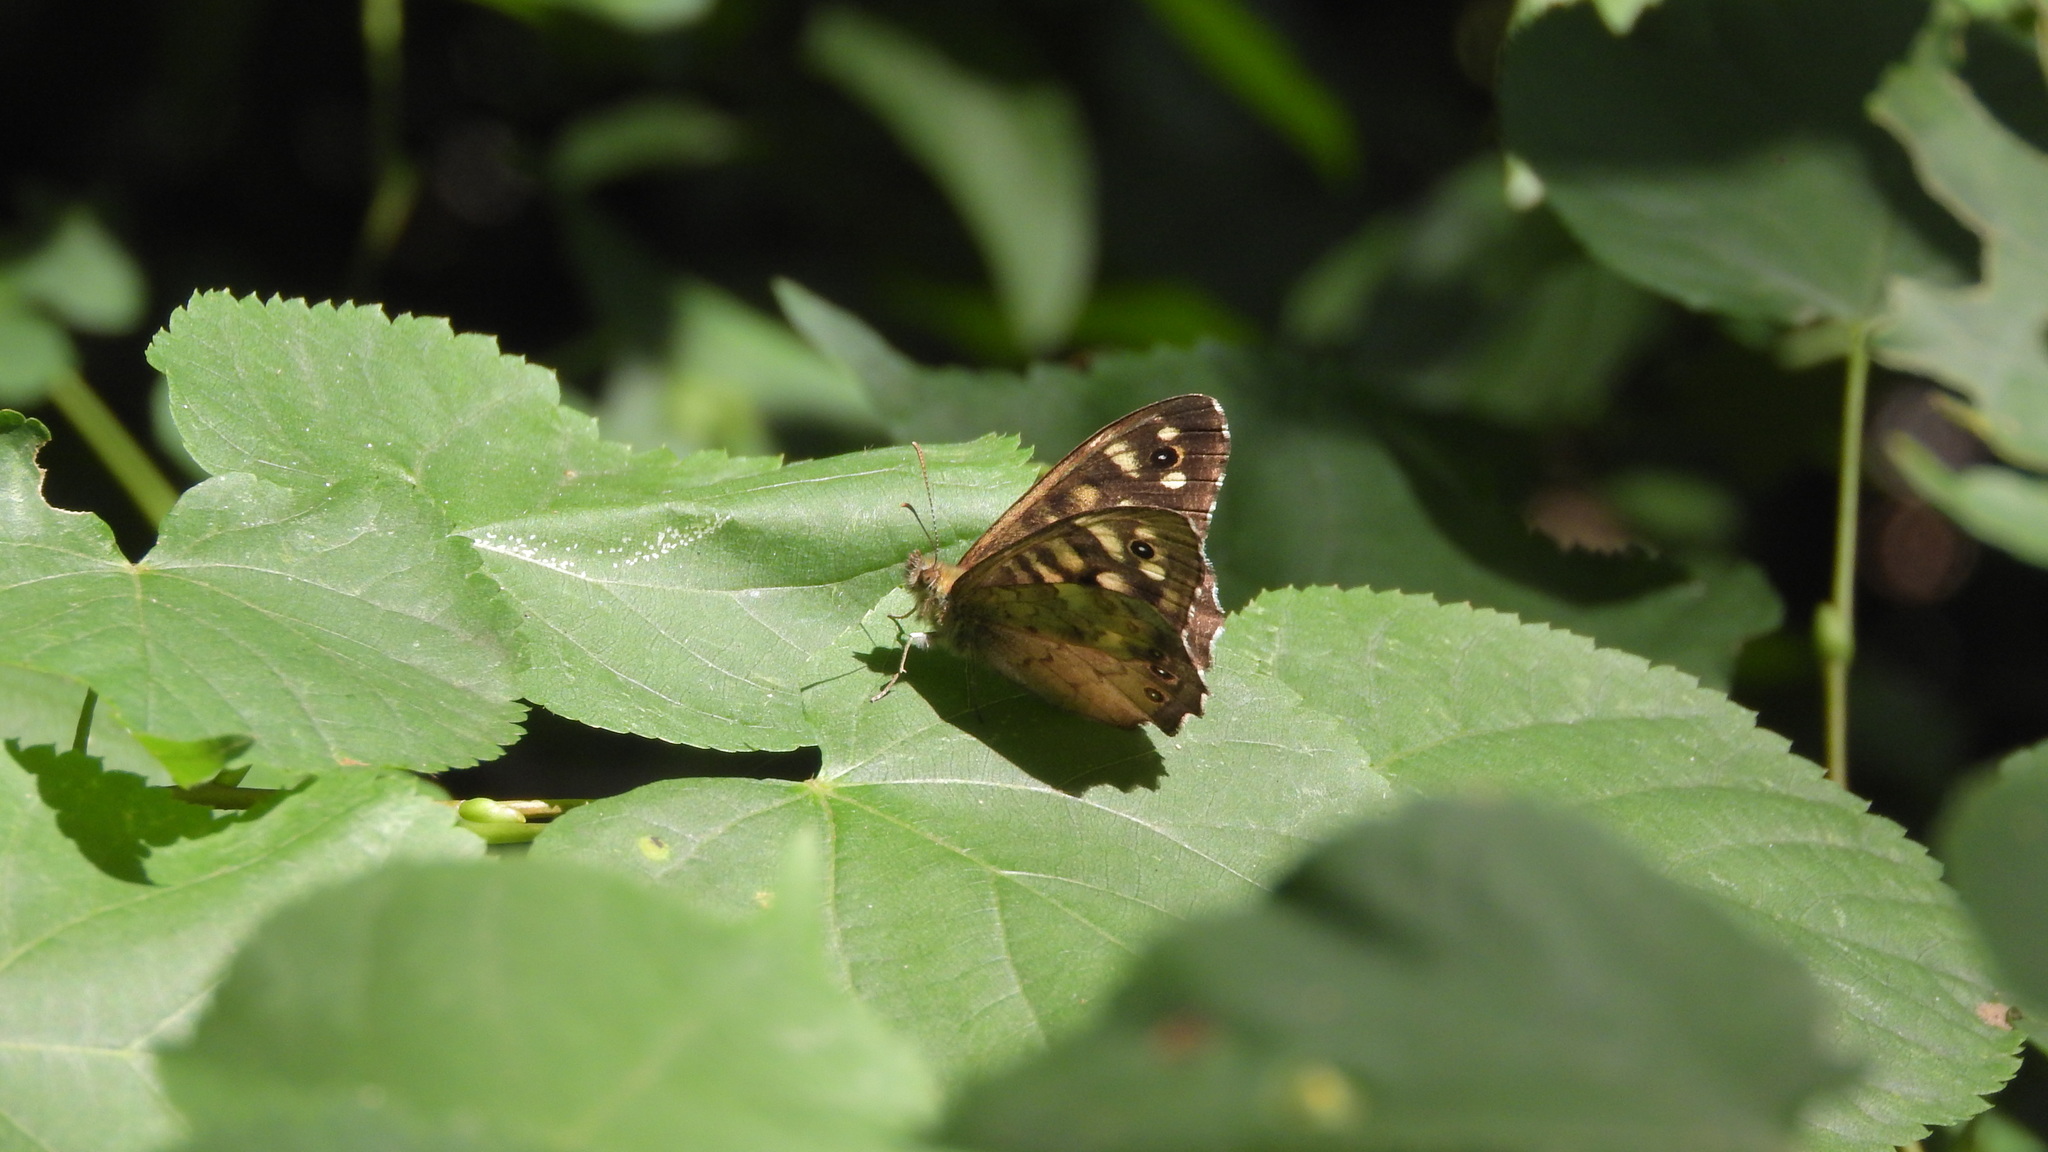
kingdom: Animalia
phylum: Arthropoda
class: Insecta
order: Lepidoptera
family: Nymphalidae
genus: Pararge
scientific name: Pararge aegeria
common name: Speckled wood
